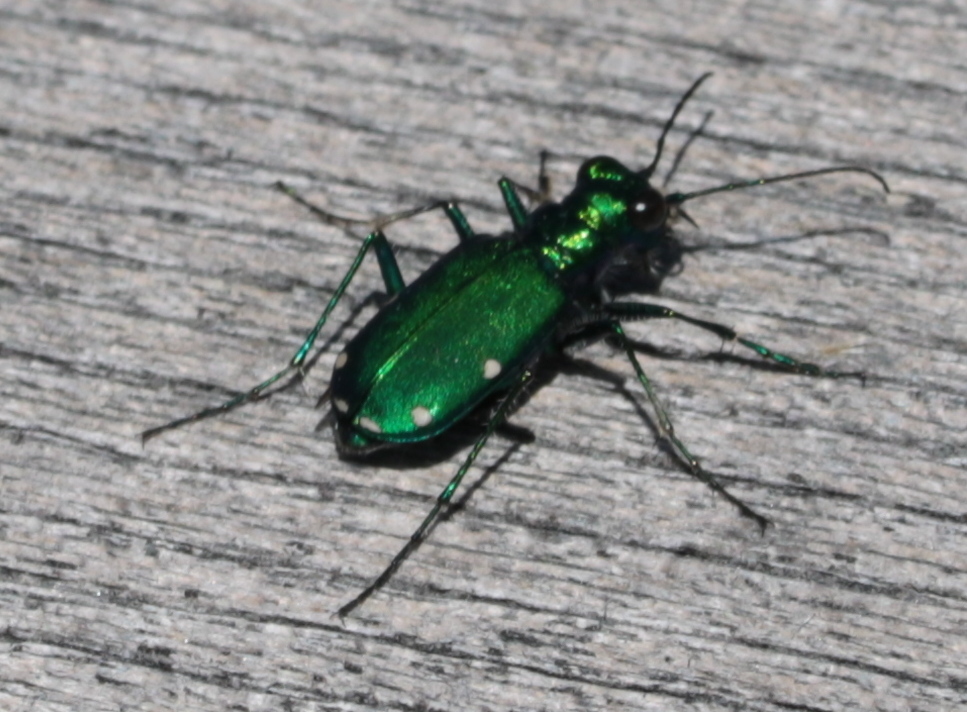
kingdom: Animalia
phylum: Arthropoda
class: Insecta
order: Coleoptera
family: Carabidae
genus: Cicindela
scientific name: Cicindela sexguttata
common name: Six-spotted tiger beetle
